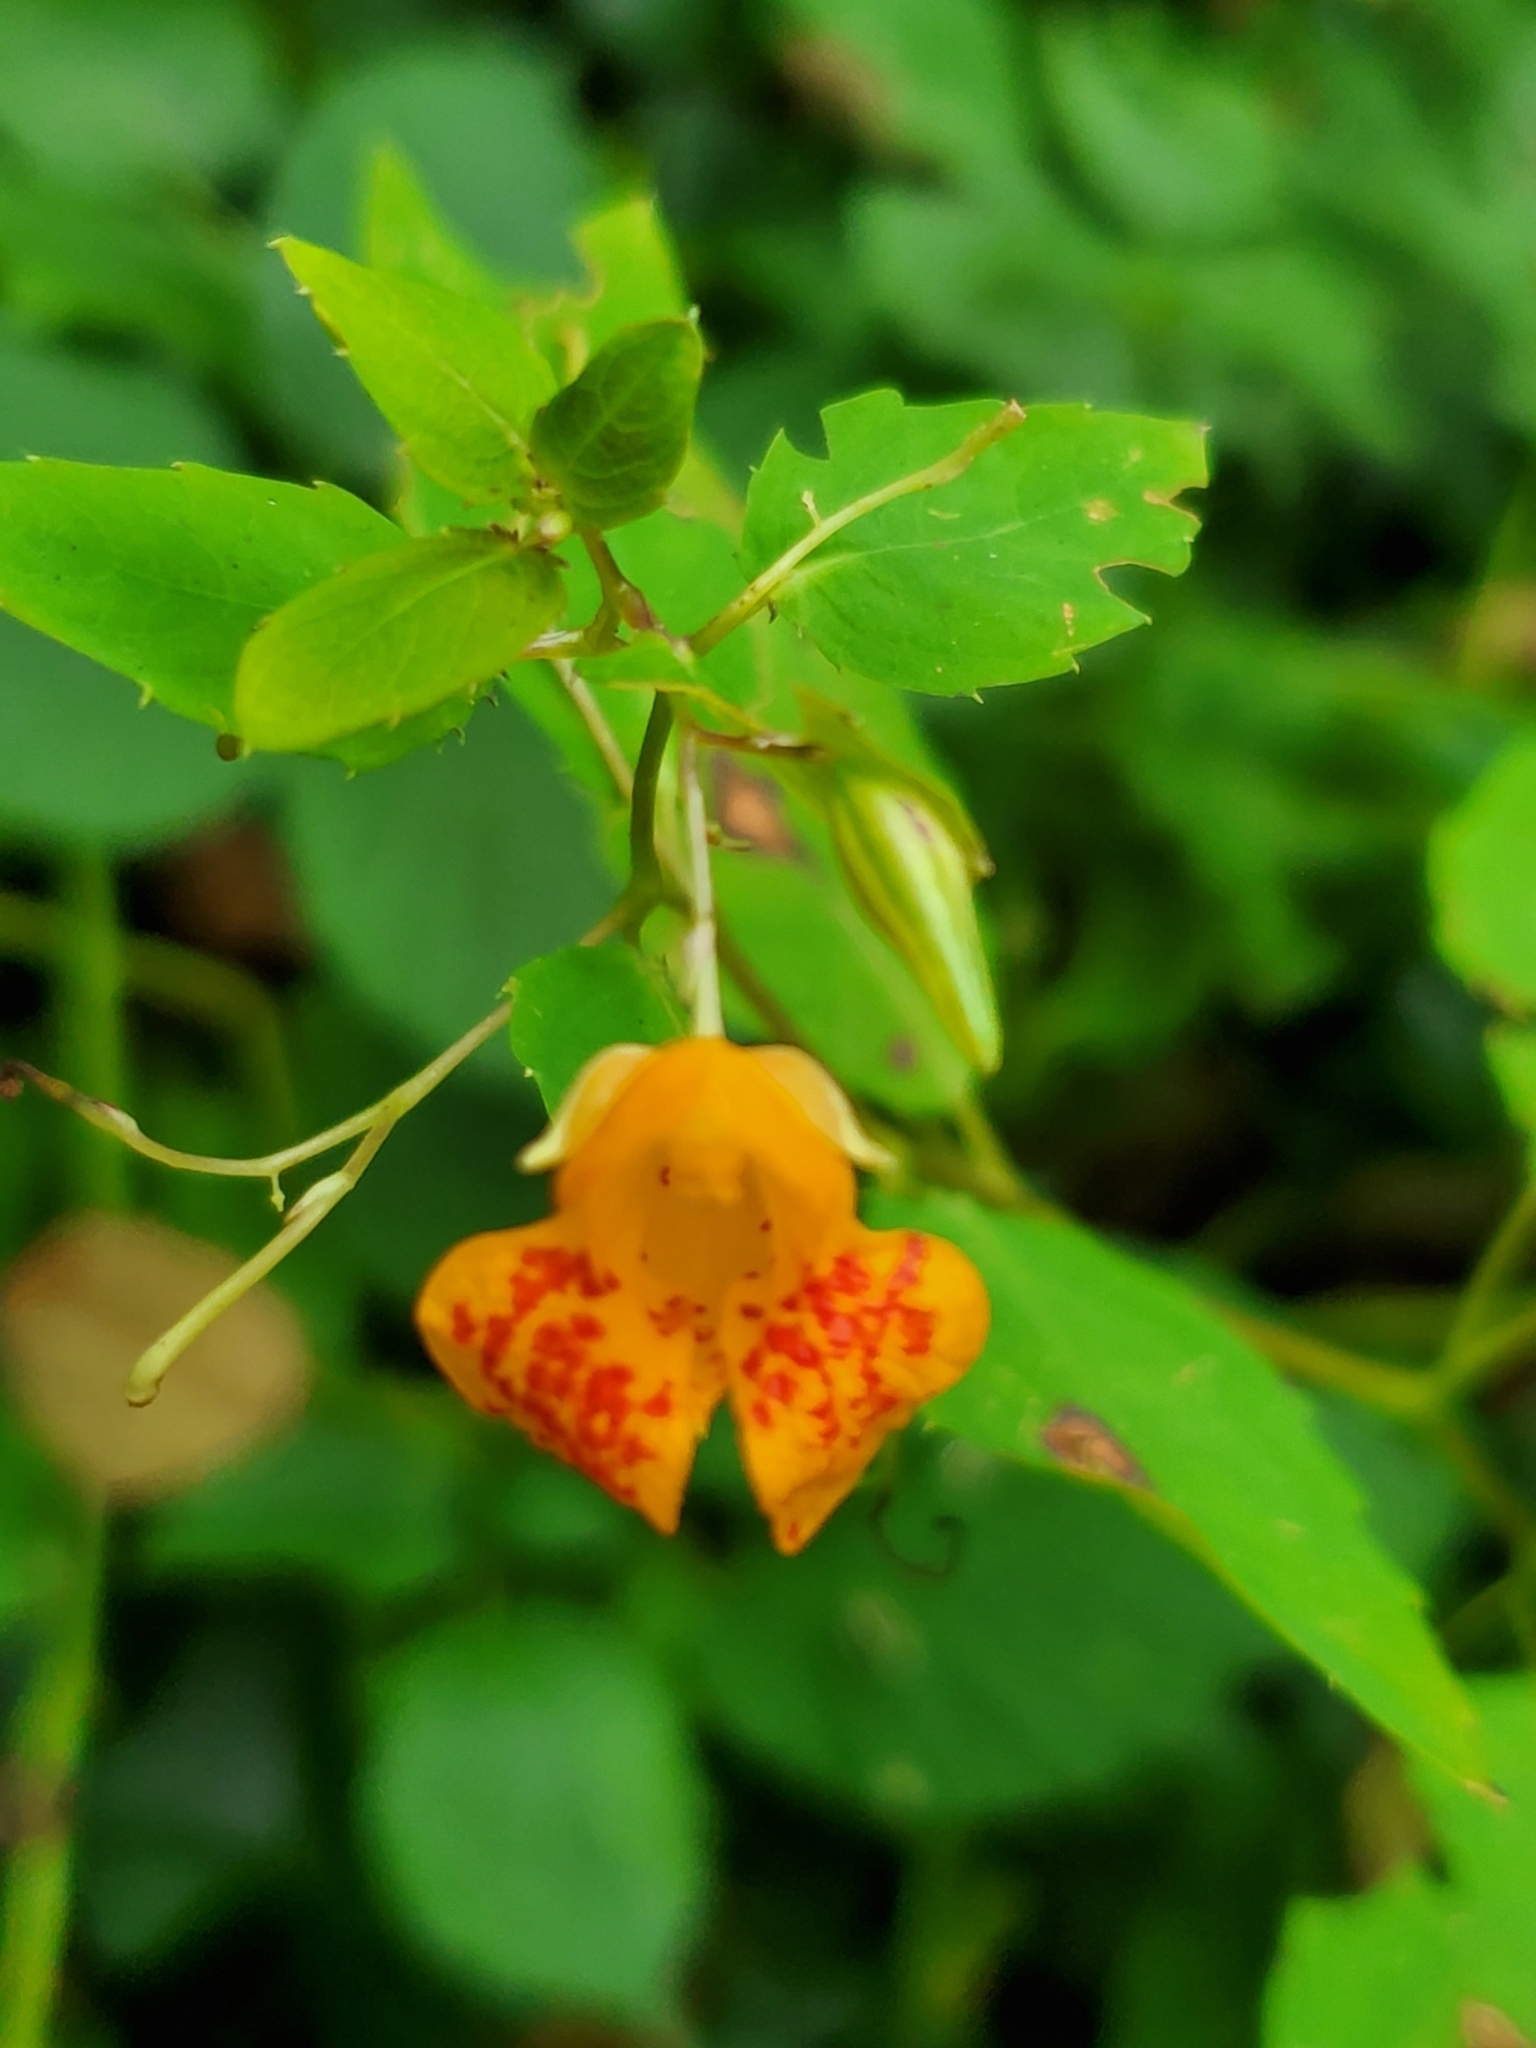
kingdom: Plantae
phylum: Tracheophyta
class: Magnoliopsida
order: Ericales
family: Balsaminaceae
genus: Impatiens
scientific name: Impatiens capensis
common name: Orange balsam
